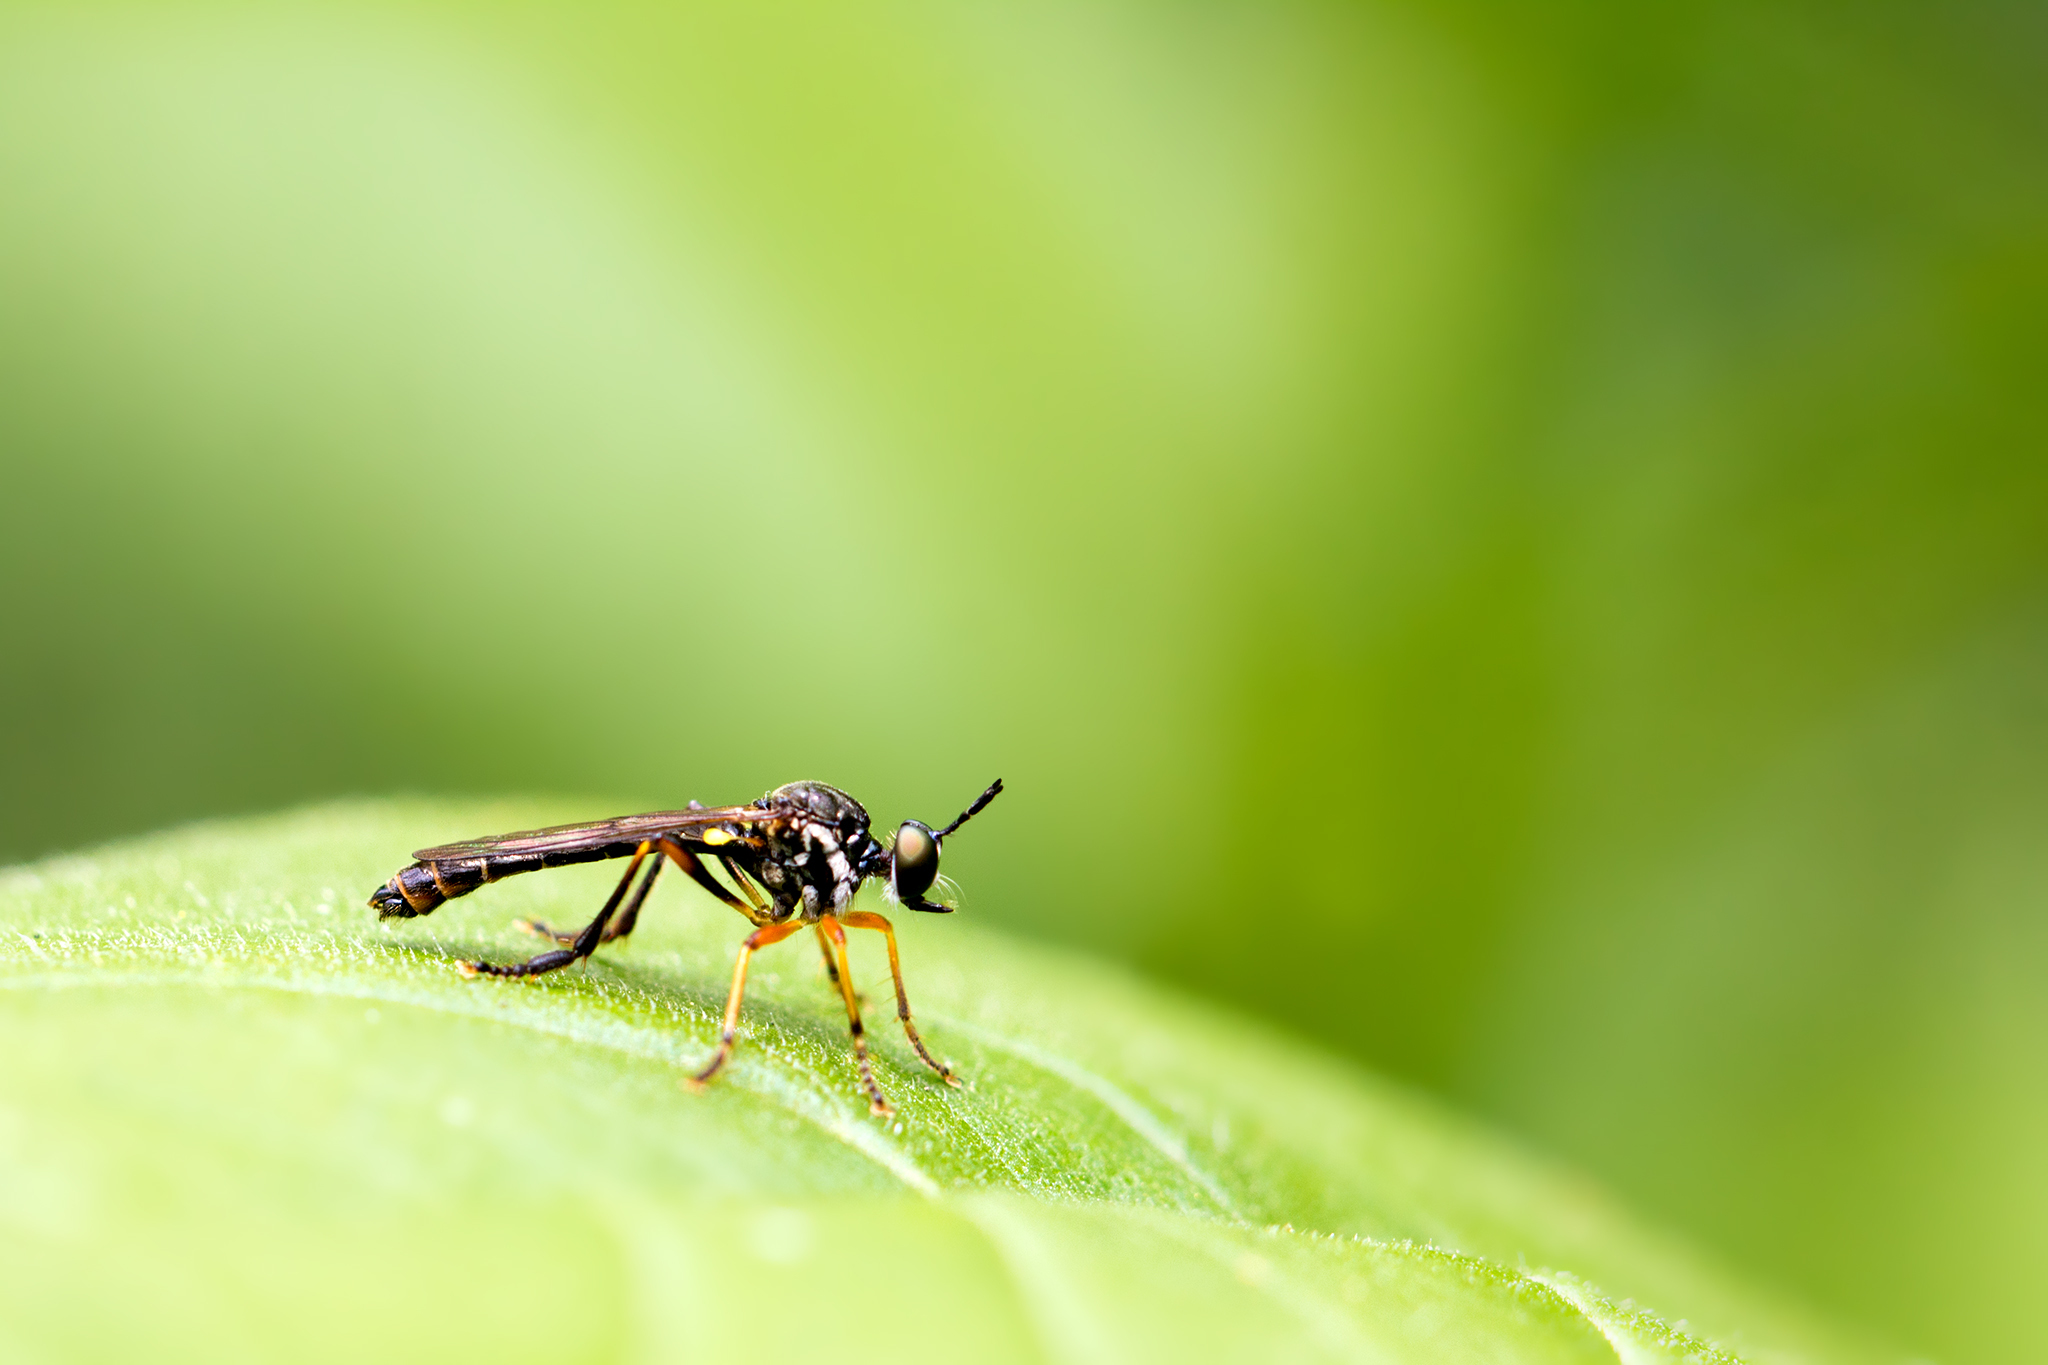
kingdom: Animalia
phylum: Arthropoda
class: Insecta
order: Diptera
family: Asilidae
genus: Dioctria
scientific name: Dioctria hyalipennis
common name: Stripe-legged robberfly
